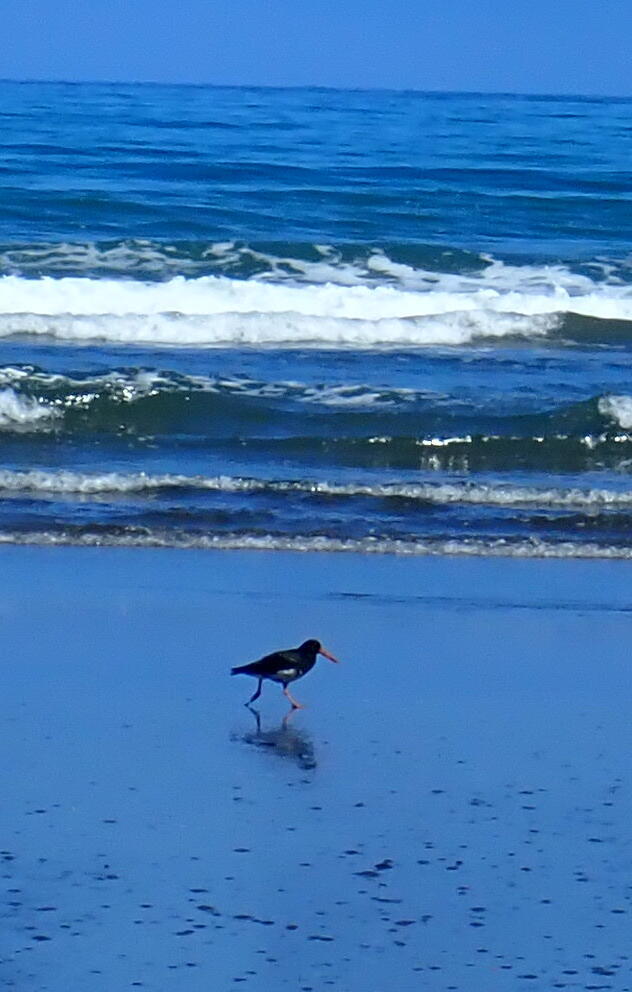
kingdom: Animalia
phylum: Chordata
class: Aves
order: Charadriiformes
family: Haematopodidae
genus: Haematopus
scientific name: Haematopus unicolor
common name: Variable oystercatcher
